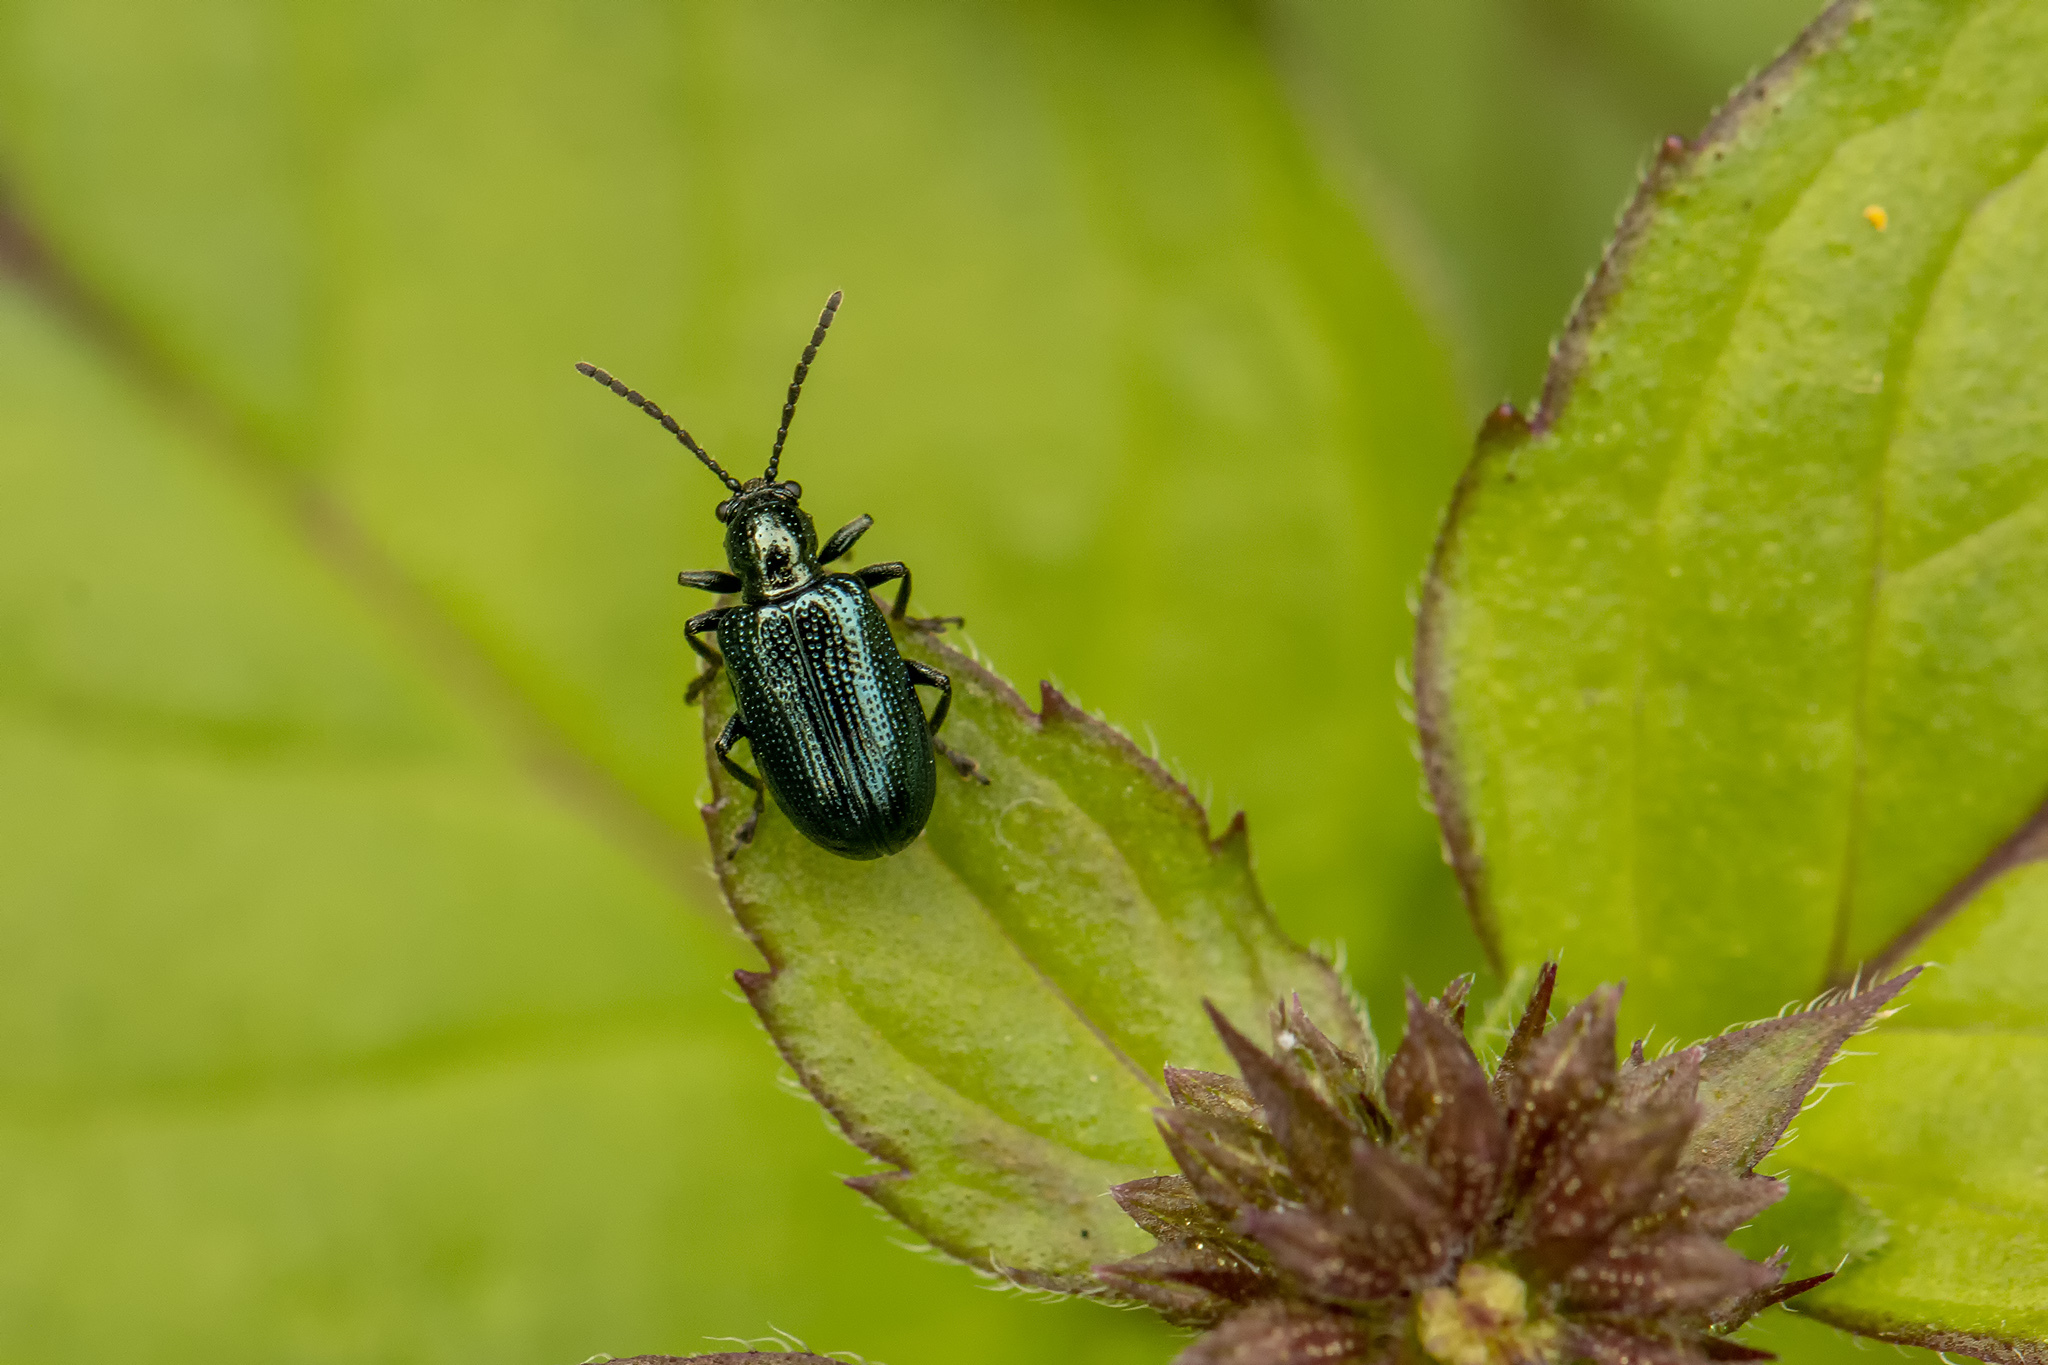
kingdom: Animalia
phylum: Arthropoda
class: Insecta
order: Coleoptera
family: Chrysomelidae
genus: Oulema
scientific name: Oulema gallaeciana
